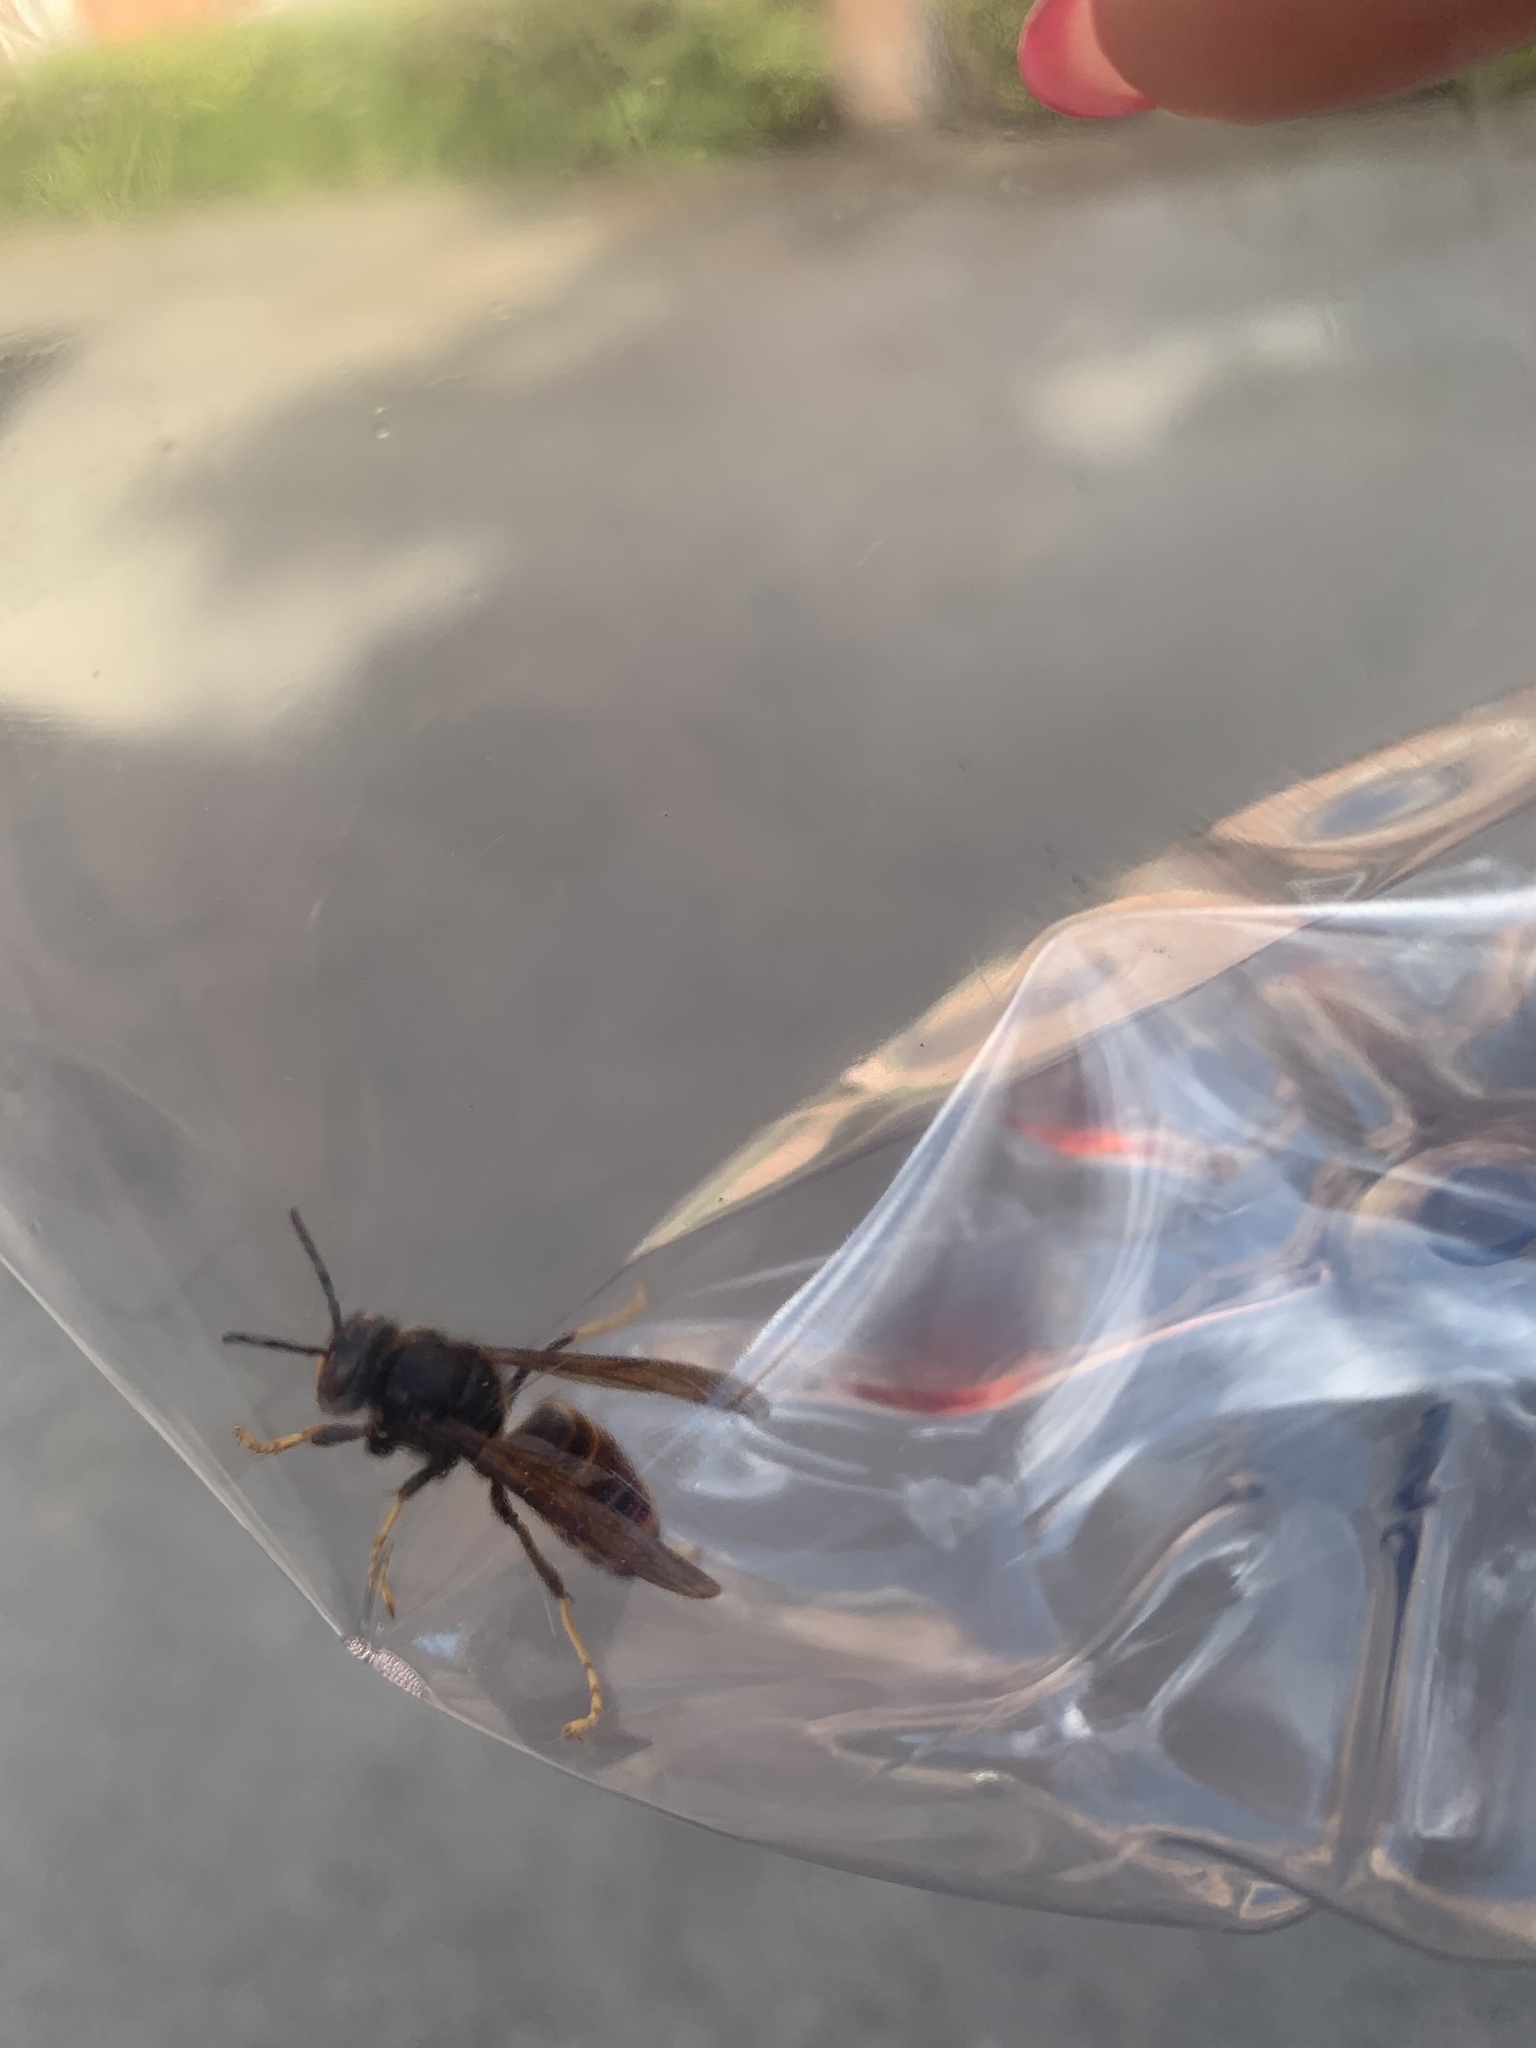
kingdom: Animalia
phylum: Arthropoda
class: Insecta
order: Hymenoptera
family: Vespidae
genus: Vespa
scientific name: Vespa velutina
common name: Asian hornet
